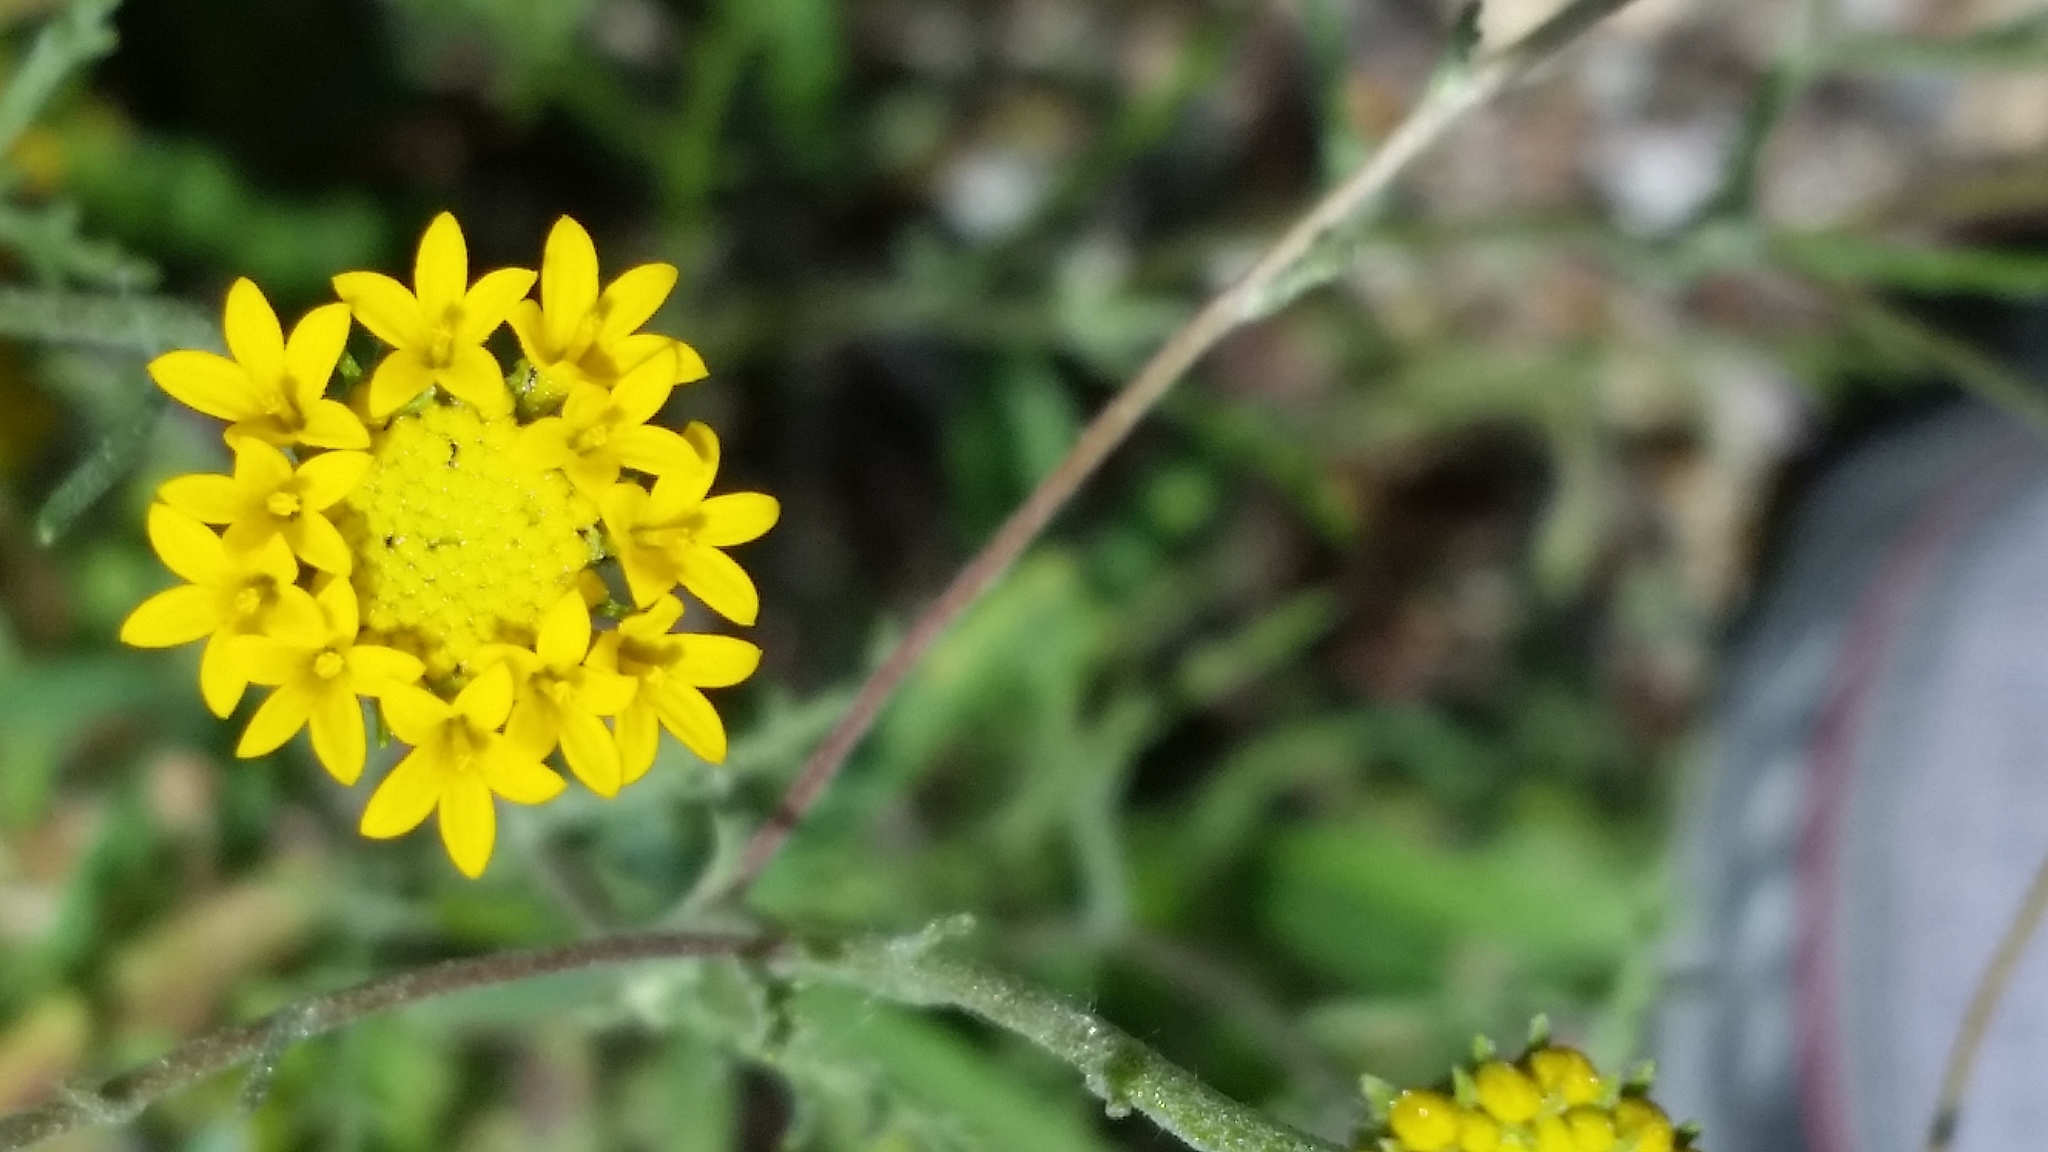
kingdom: Plantae
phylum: Tracheophyta
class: Magnoliopsida
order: Asterales
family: Asteraceae
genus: Chaenactis
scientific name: Chaenactis glabriuscula
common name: Yellow pincushion
